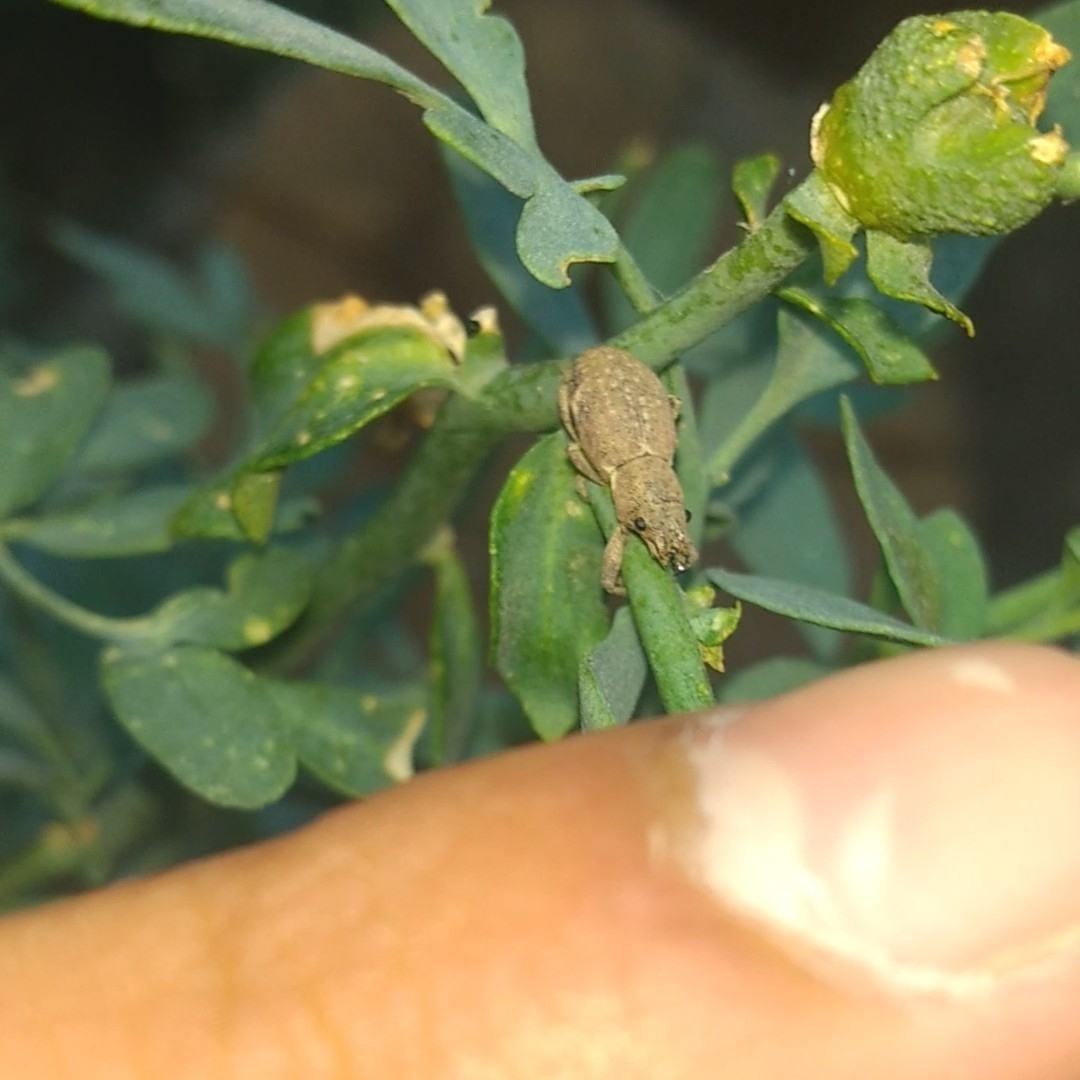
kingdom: Animalia
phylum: Arthropoda
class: Insecta
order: Coleoptera
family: Curculionidae
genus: Naupactus
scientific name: Naupactus cervinus
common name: Fuller rose beetle
